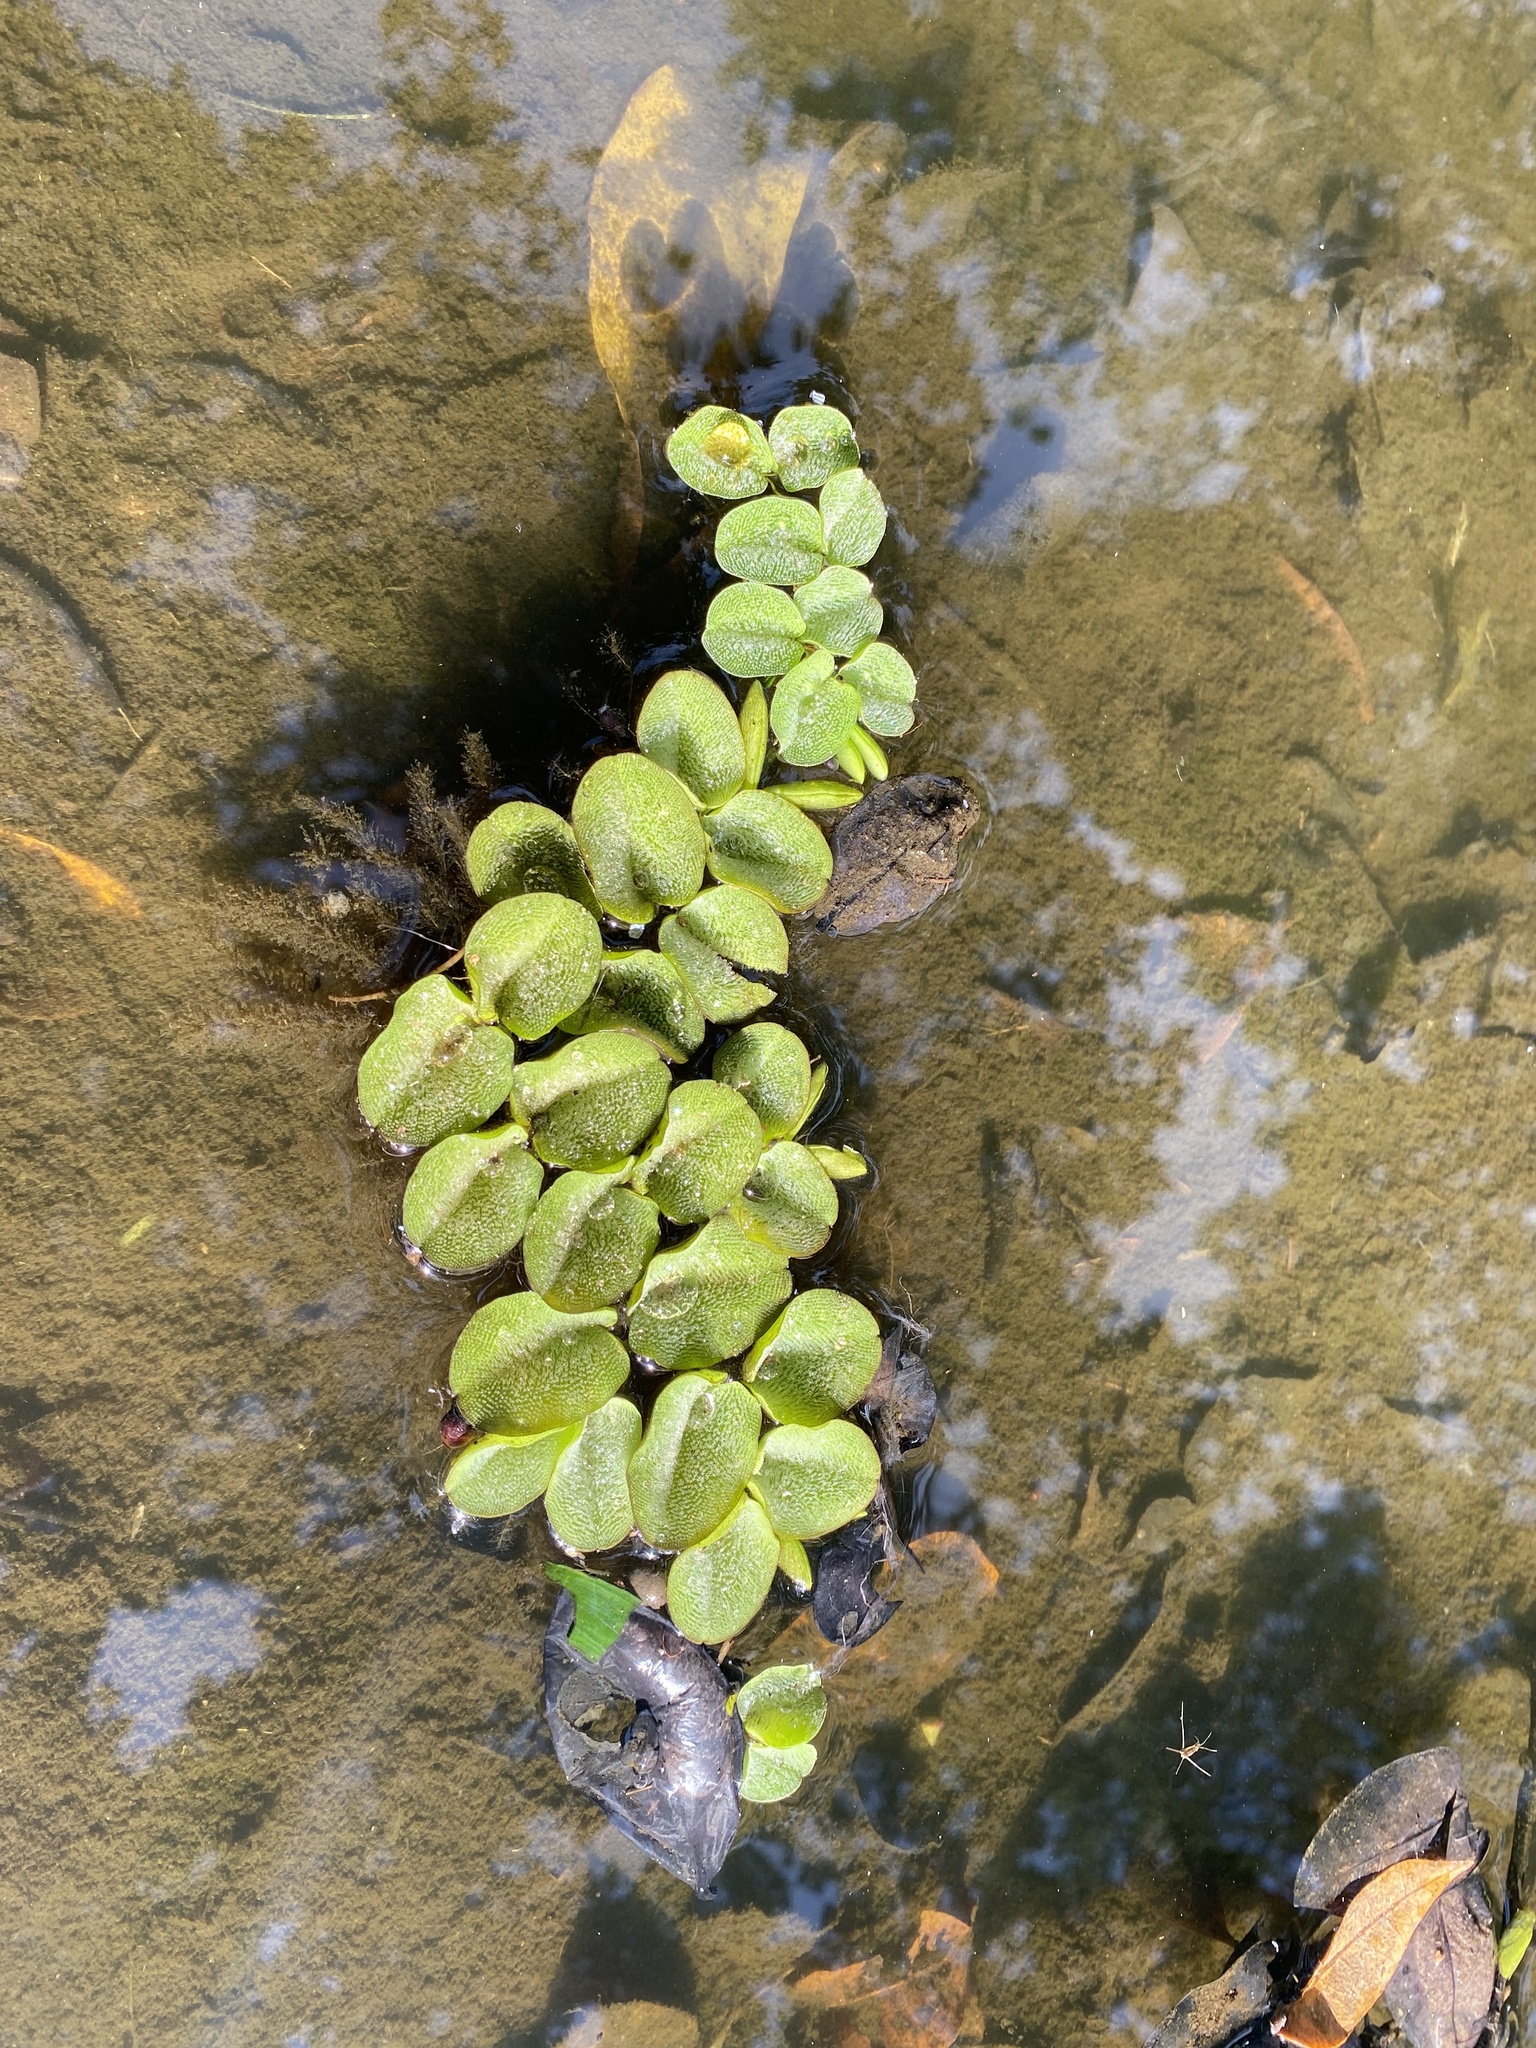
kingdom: Plantae
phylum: Tracheophyta
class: Polypodiopsida
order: Salviniales
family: Salviniaceae
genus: Salvinia
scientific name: Salvinia molesta
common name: Kariba weed
